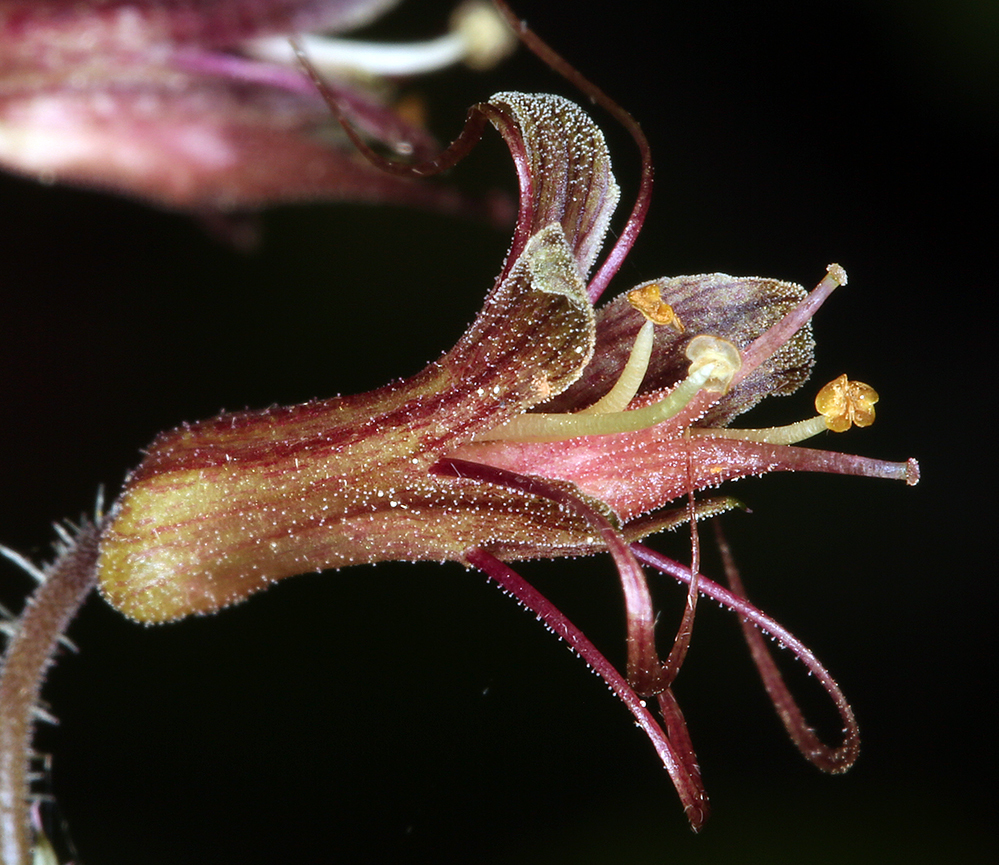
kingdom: Plantae
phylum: Tracheophyta
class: Magnoliopsida
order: Saxifragales
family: Saxifragaceae
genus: Tolmiea
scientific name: Tolmiea diplomenziesii
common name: Youth on age
